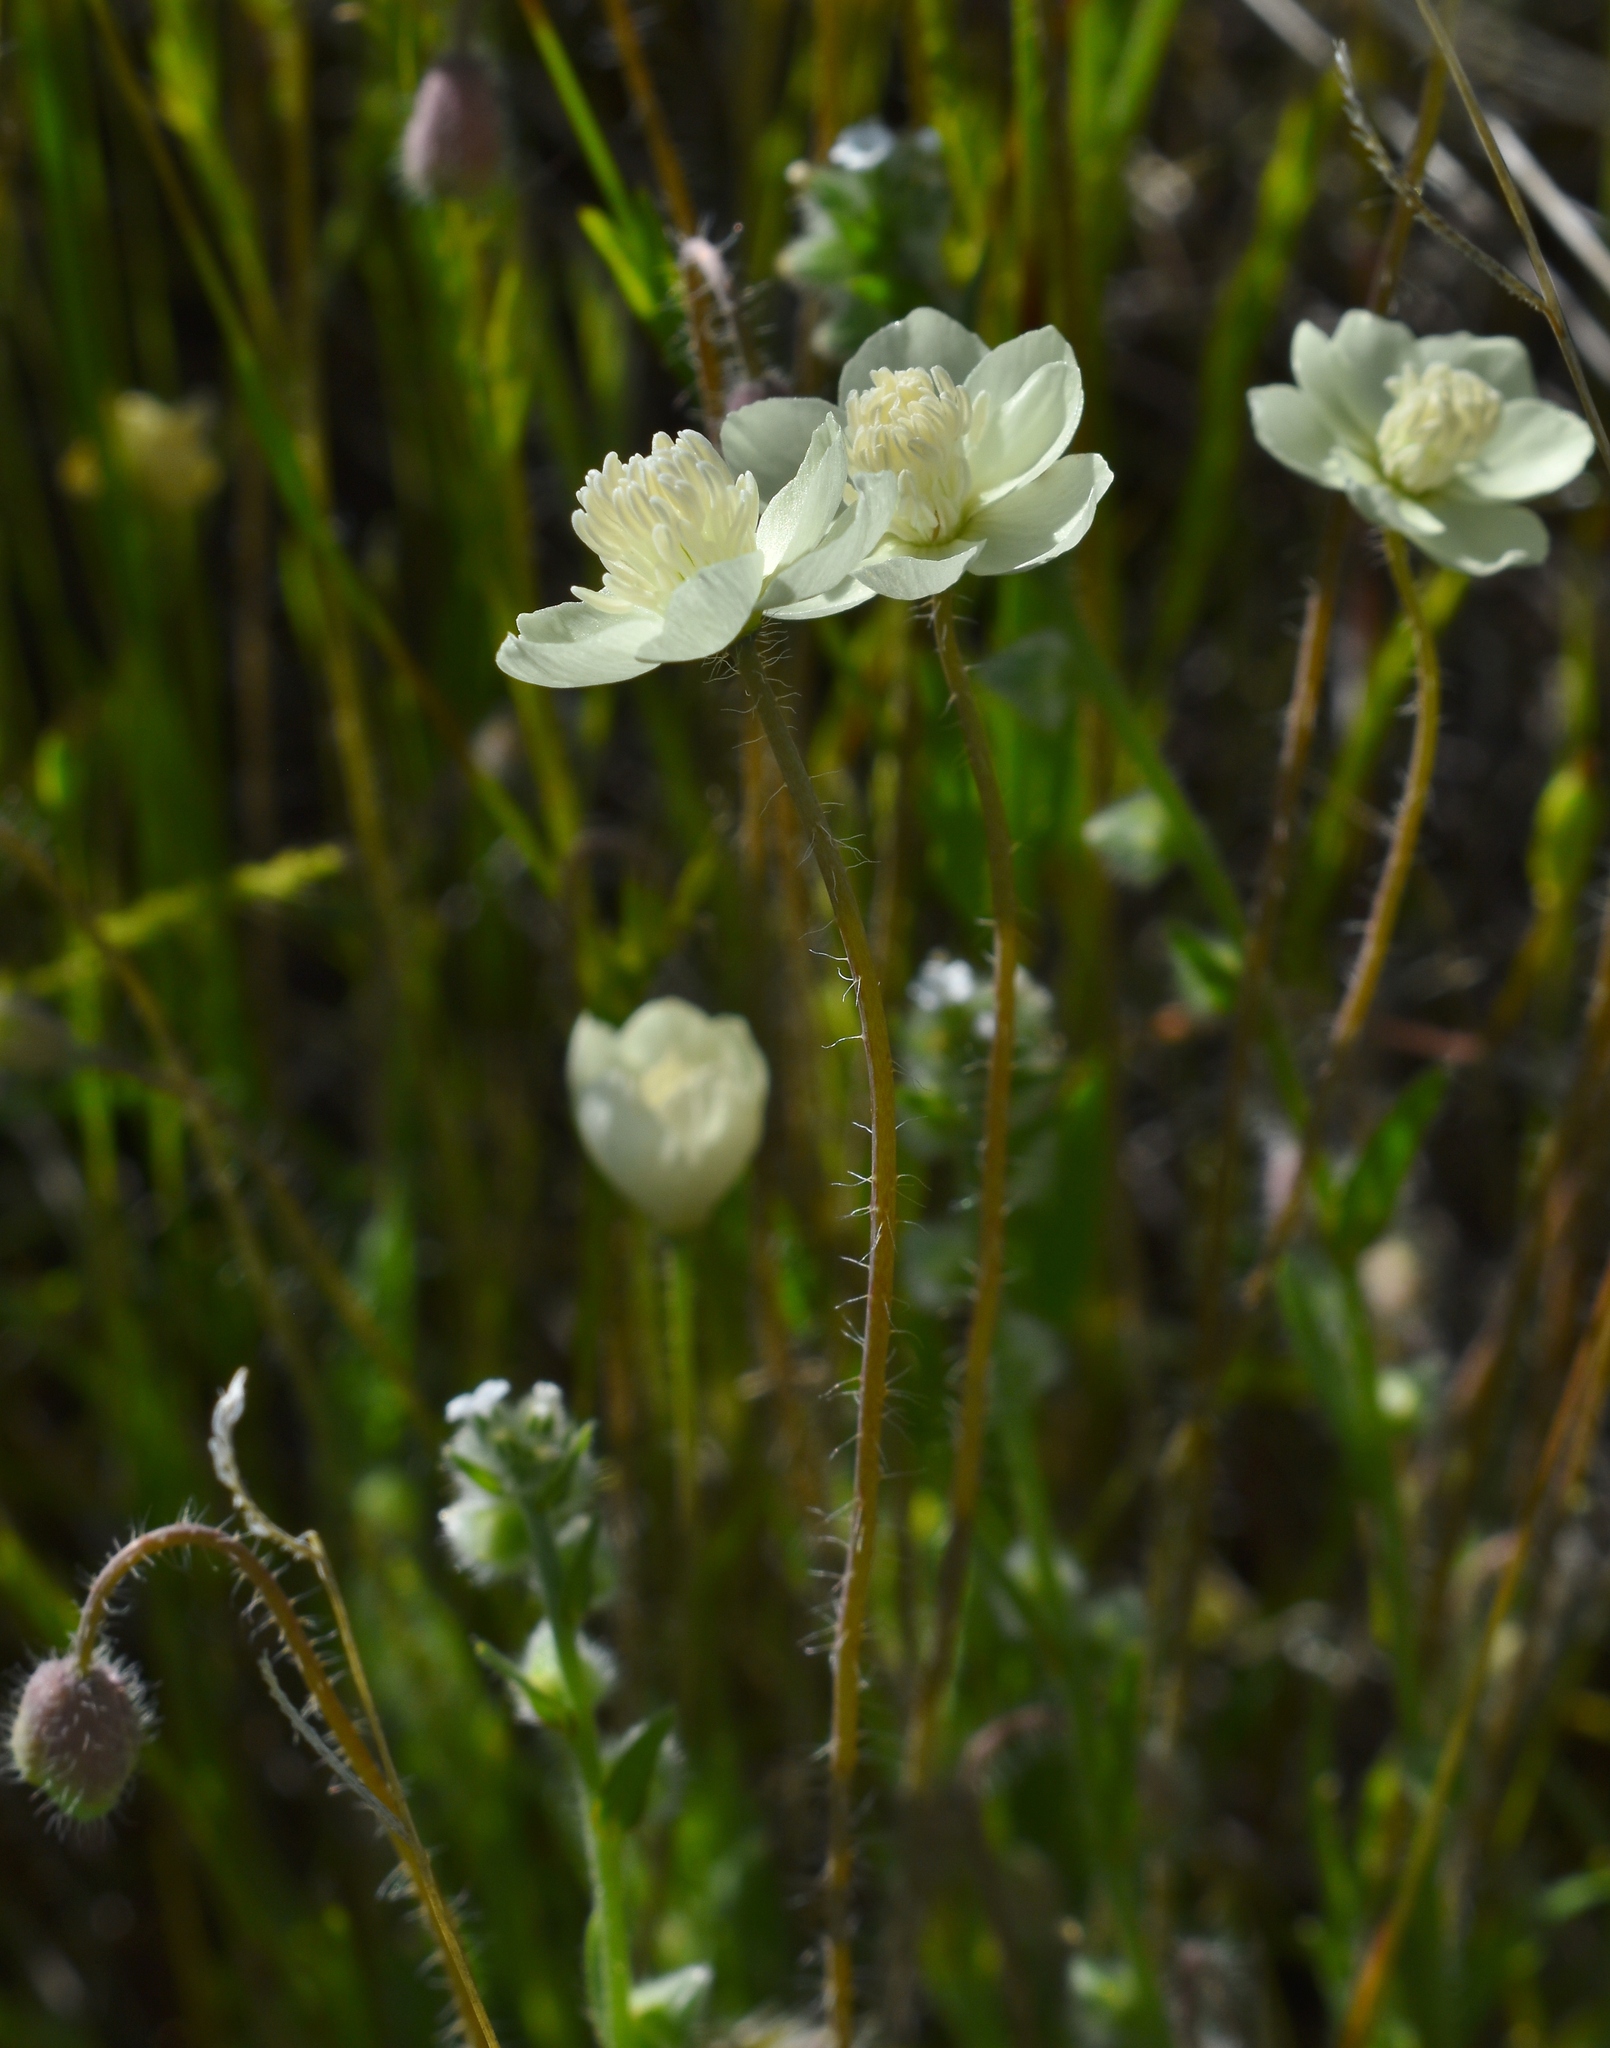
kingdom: Plantae
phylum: Tracheophyta
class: Magnoliopsida
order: Ranunculales
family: Papaveraceae
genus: Platystemon
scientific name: Platystemon californicus
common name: Cream-cups
